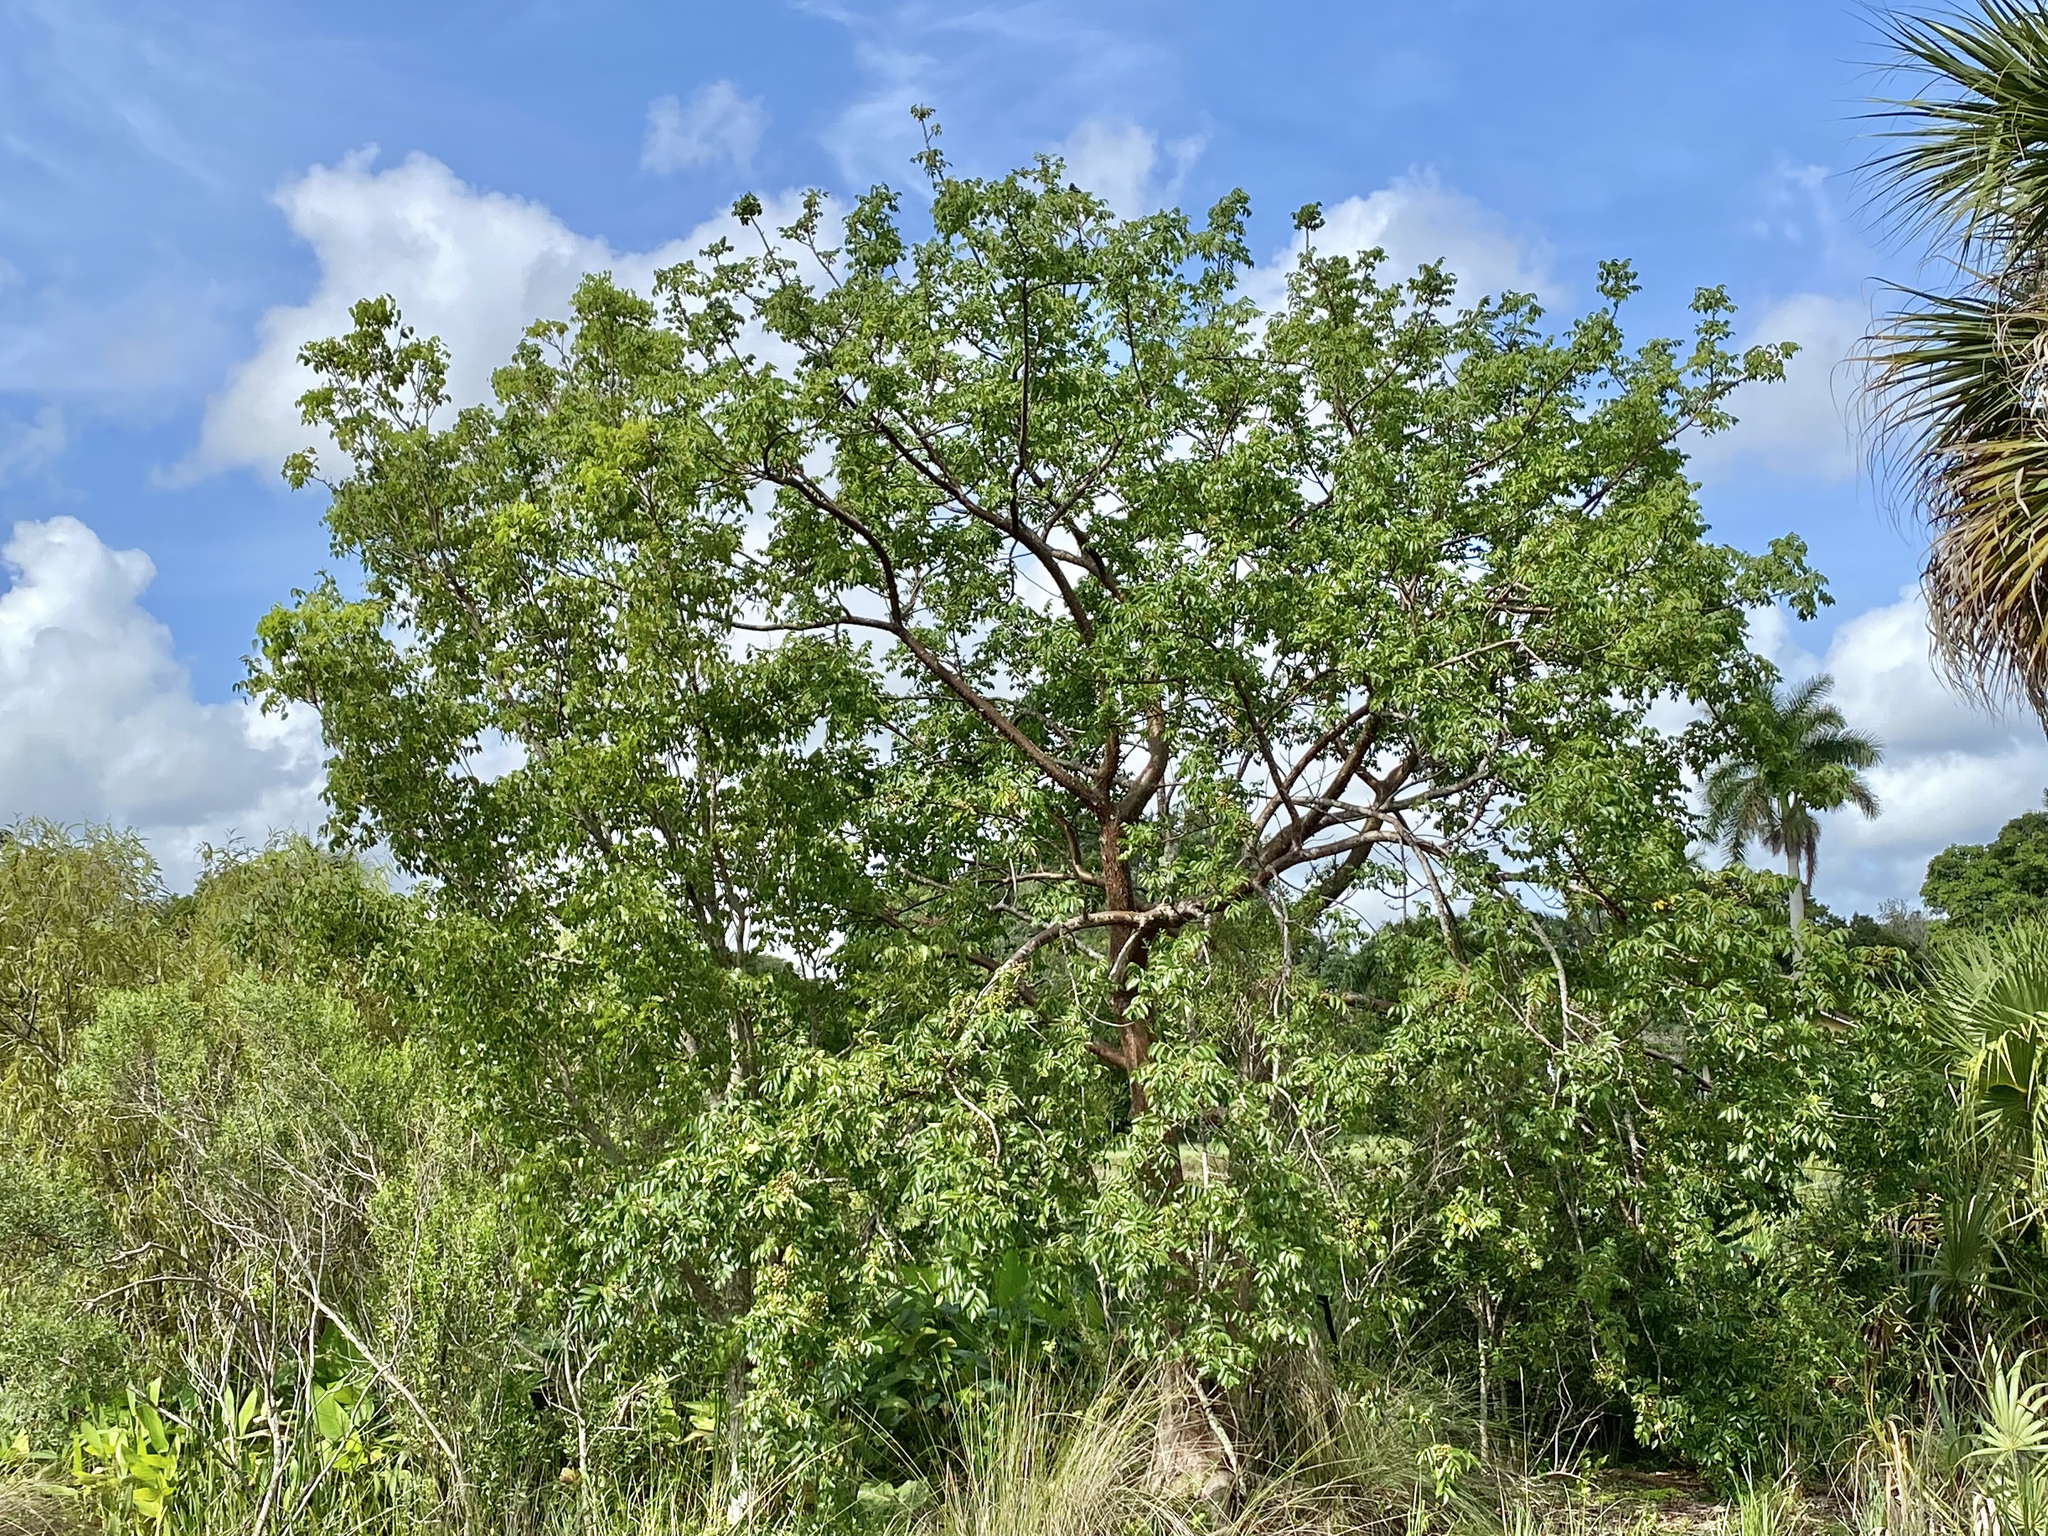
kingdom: Plantae
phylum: Tracheophyta
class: Magnoliopsida
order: Sapindales
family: Burseraceae
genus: Bursera
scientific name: Bursera simaruba
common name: Turpentine tree
